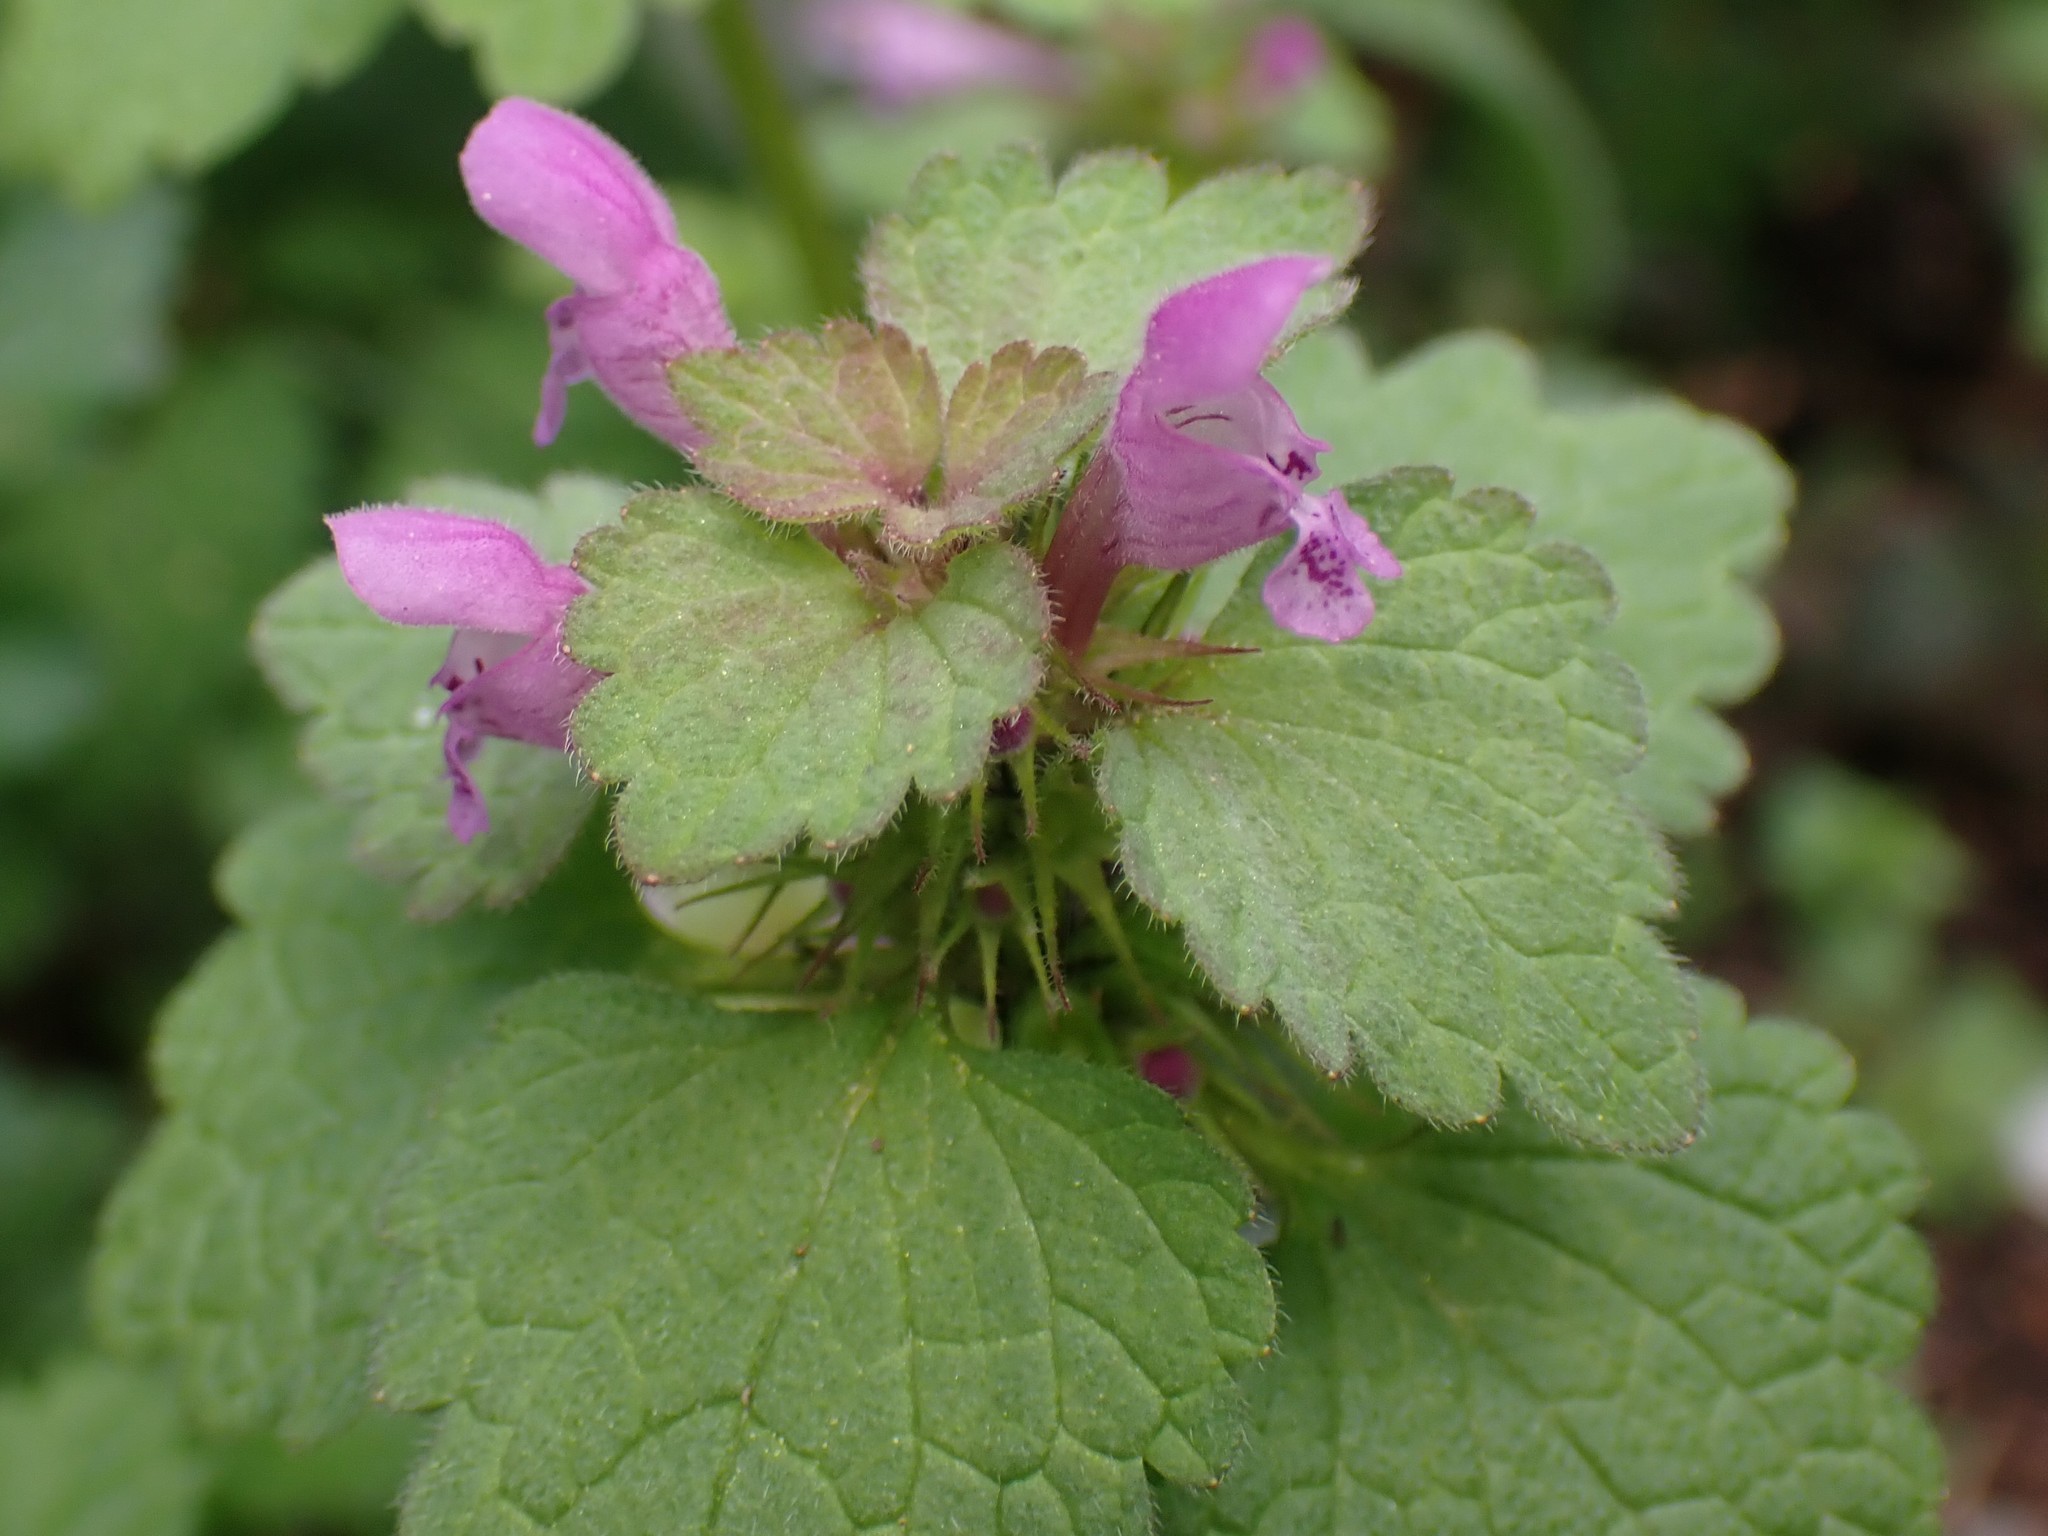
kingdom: Plantae
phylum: Tracheophyta
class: Magnoliopsida
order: Lamiales
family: Lamiaceae
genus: Lamium
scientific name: Lamium purpureum
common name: Red dead-nettle
